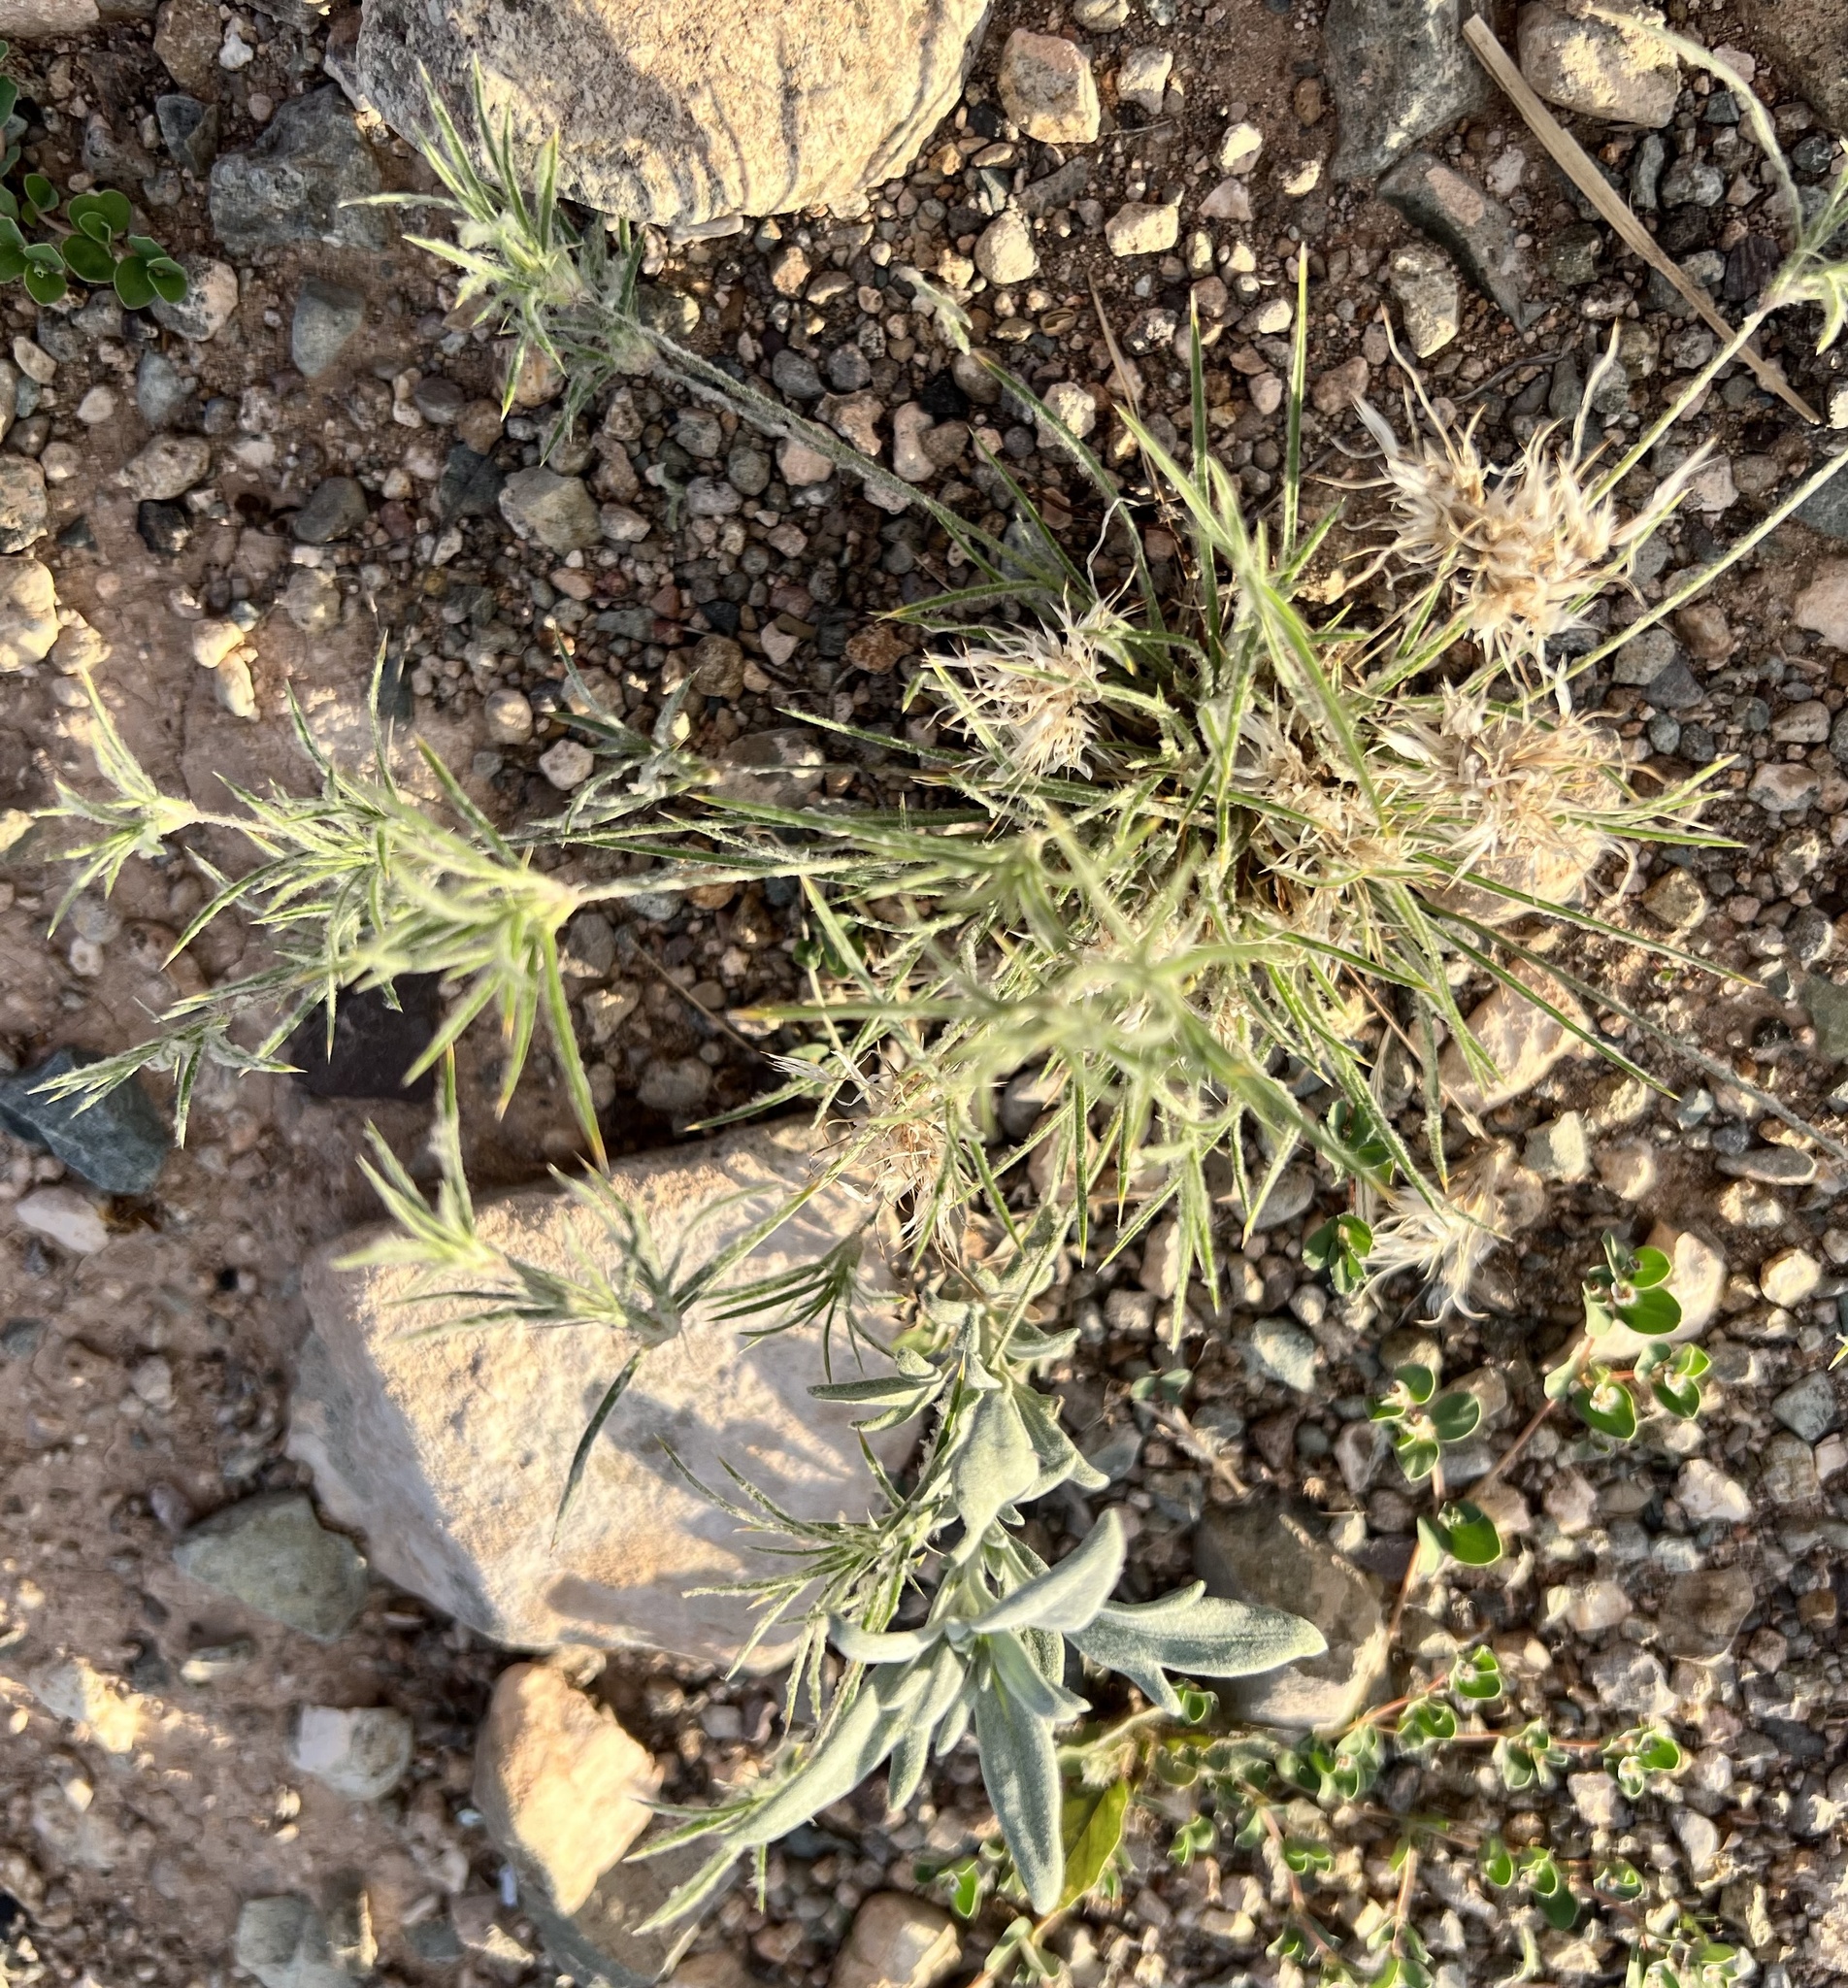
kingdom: Plantae
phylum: Tracheophyta
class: Liliopsida
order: Poales
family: Poaceae
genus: Dasyochloa
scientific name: Dasyochloa pulchella
